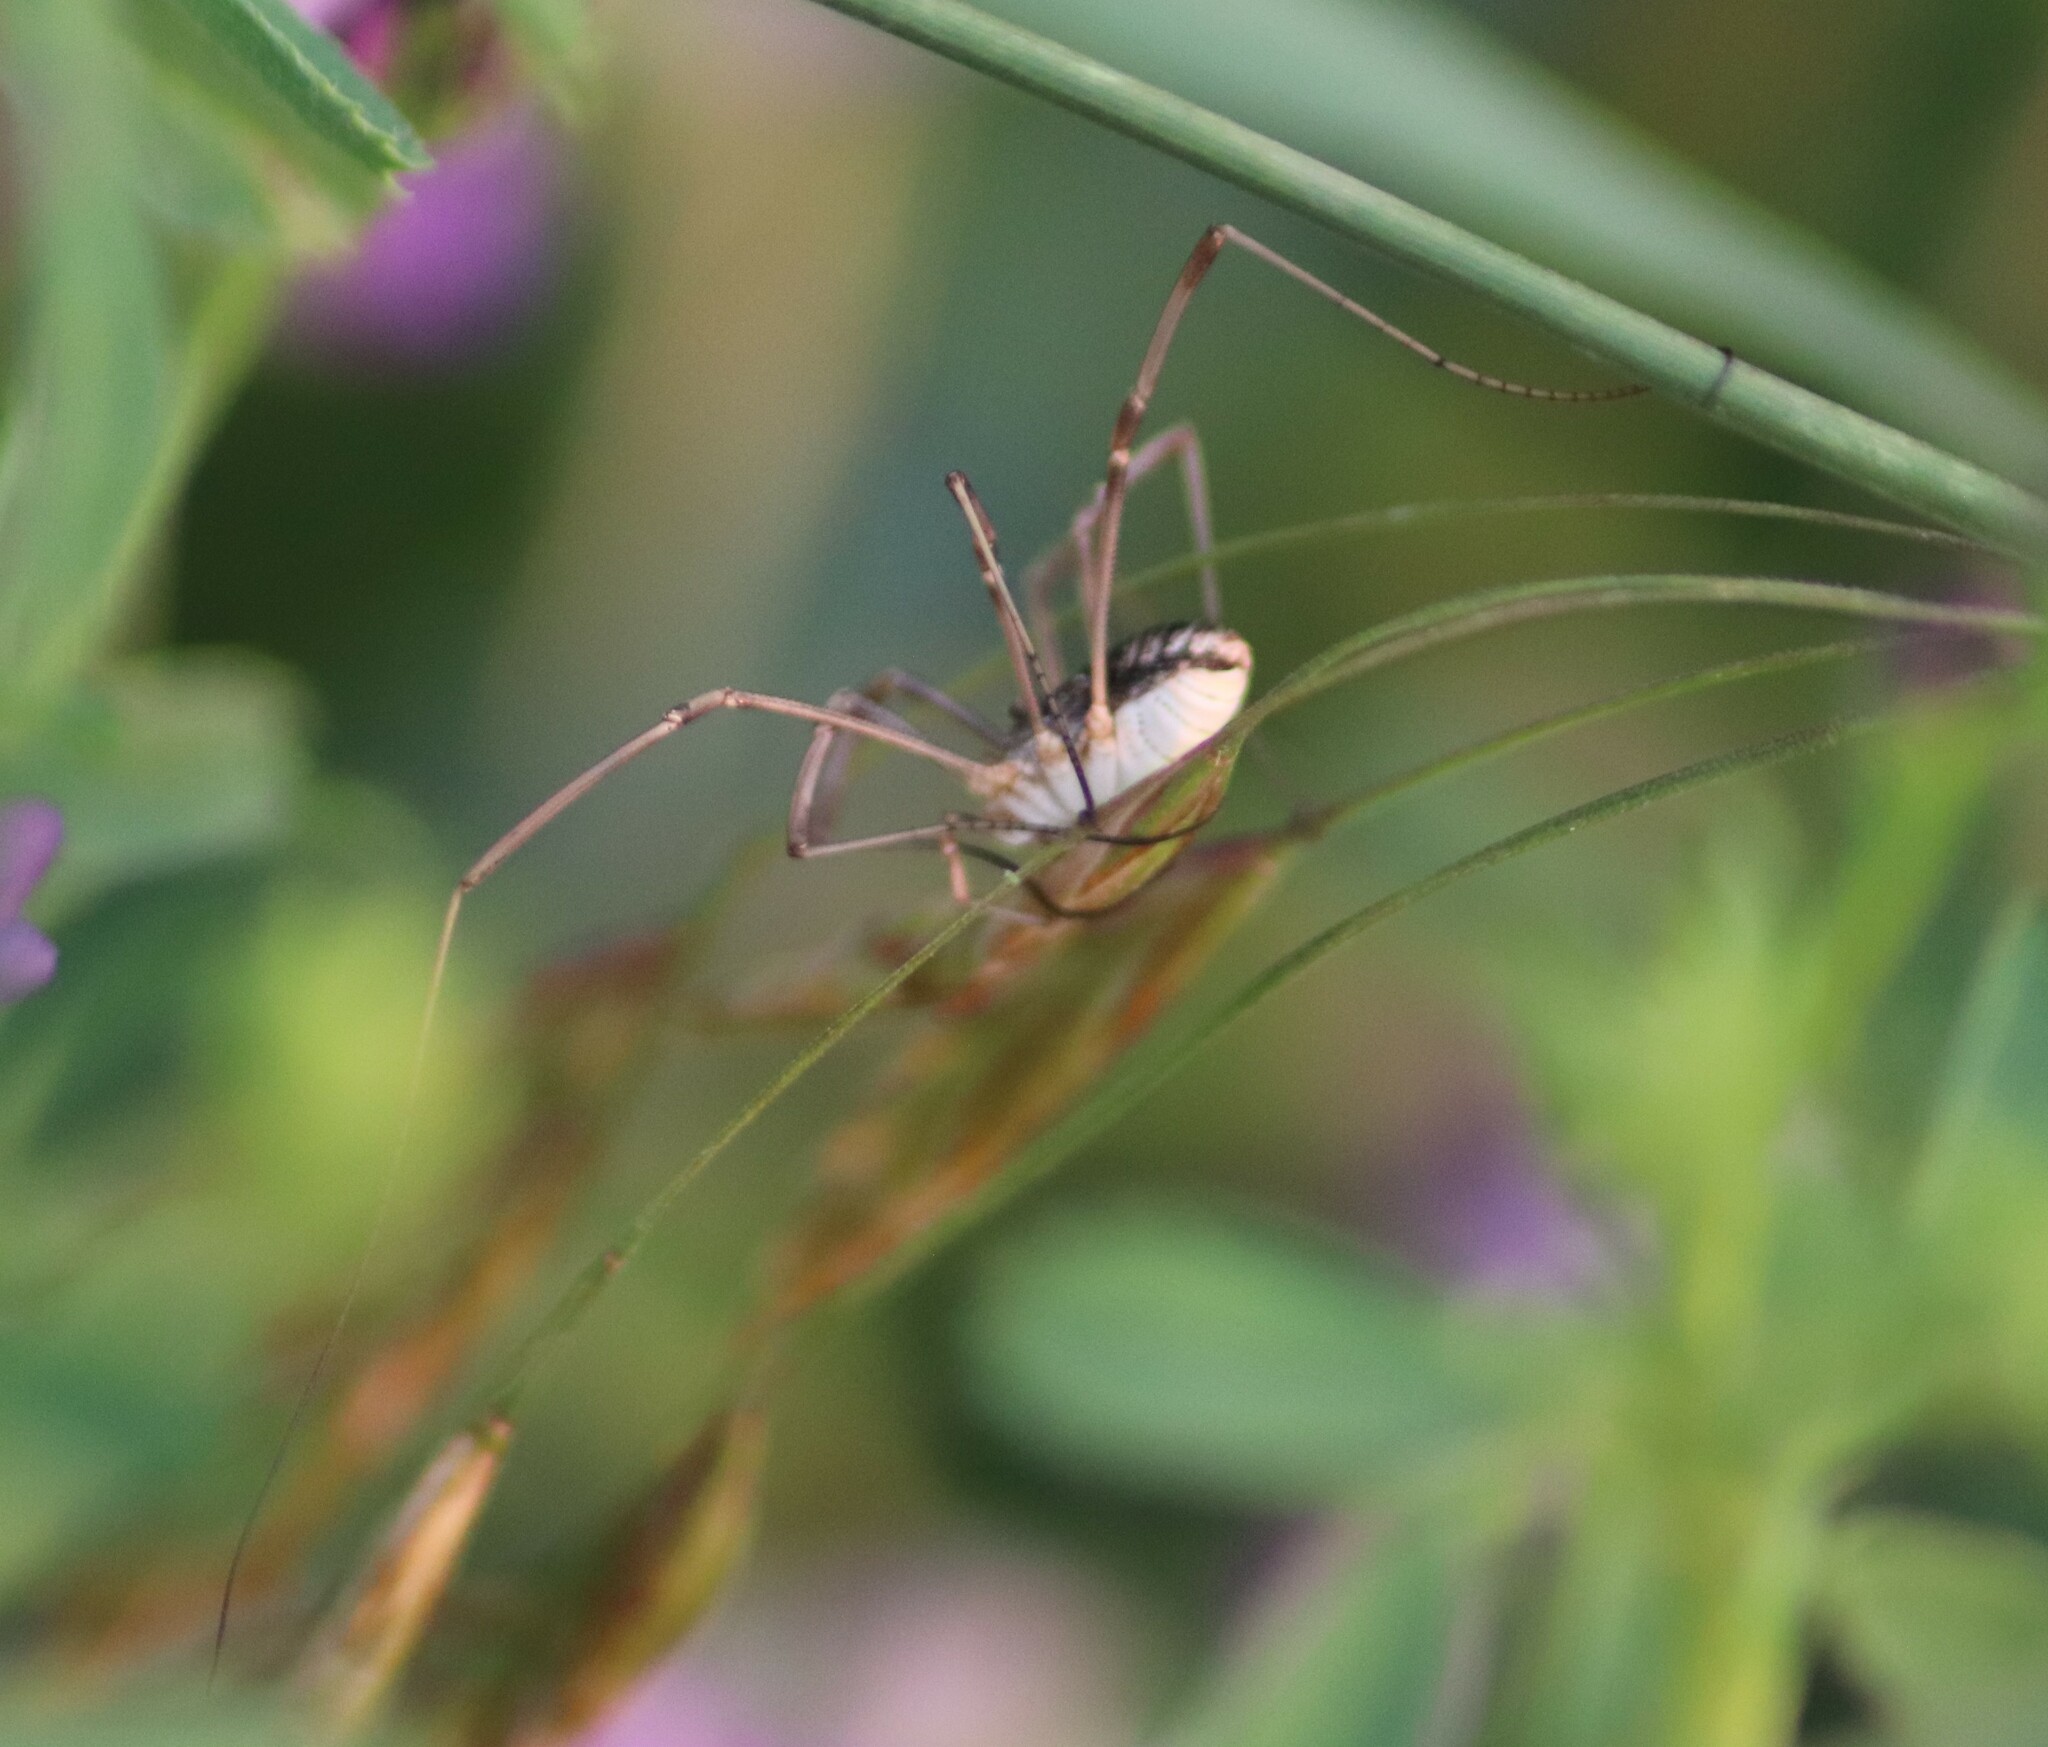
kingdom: Animalia
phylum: Arthropoda
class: Arachnida
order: Opiliones
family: Phalangiidae
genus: Phalangium
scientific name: Phalangium opilio
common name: Daddy longleg
